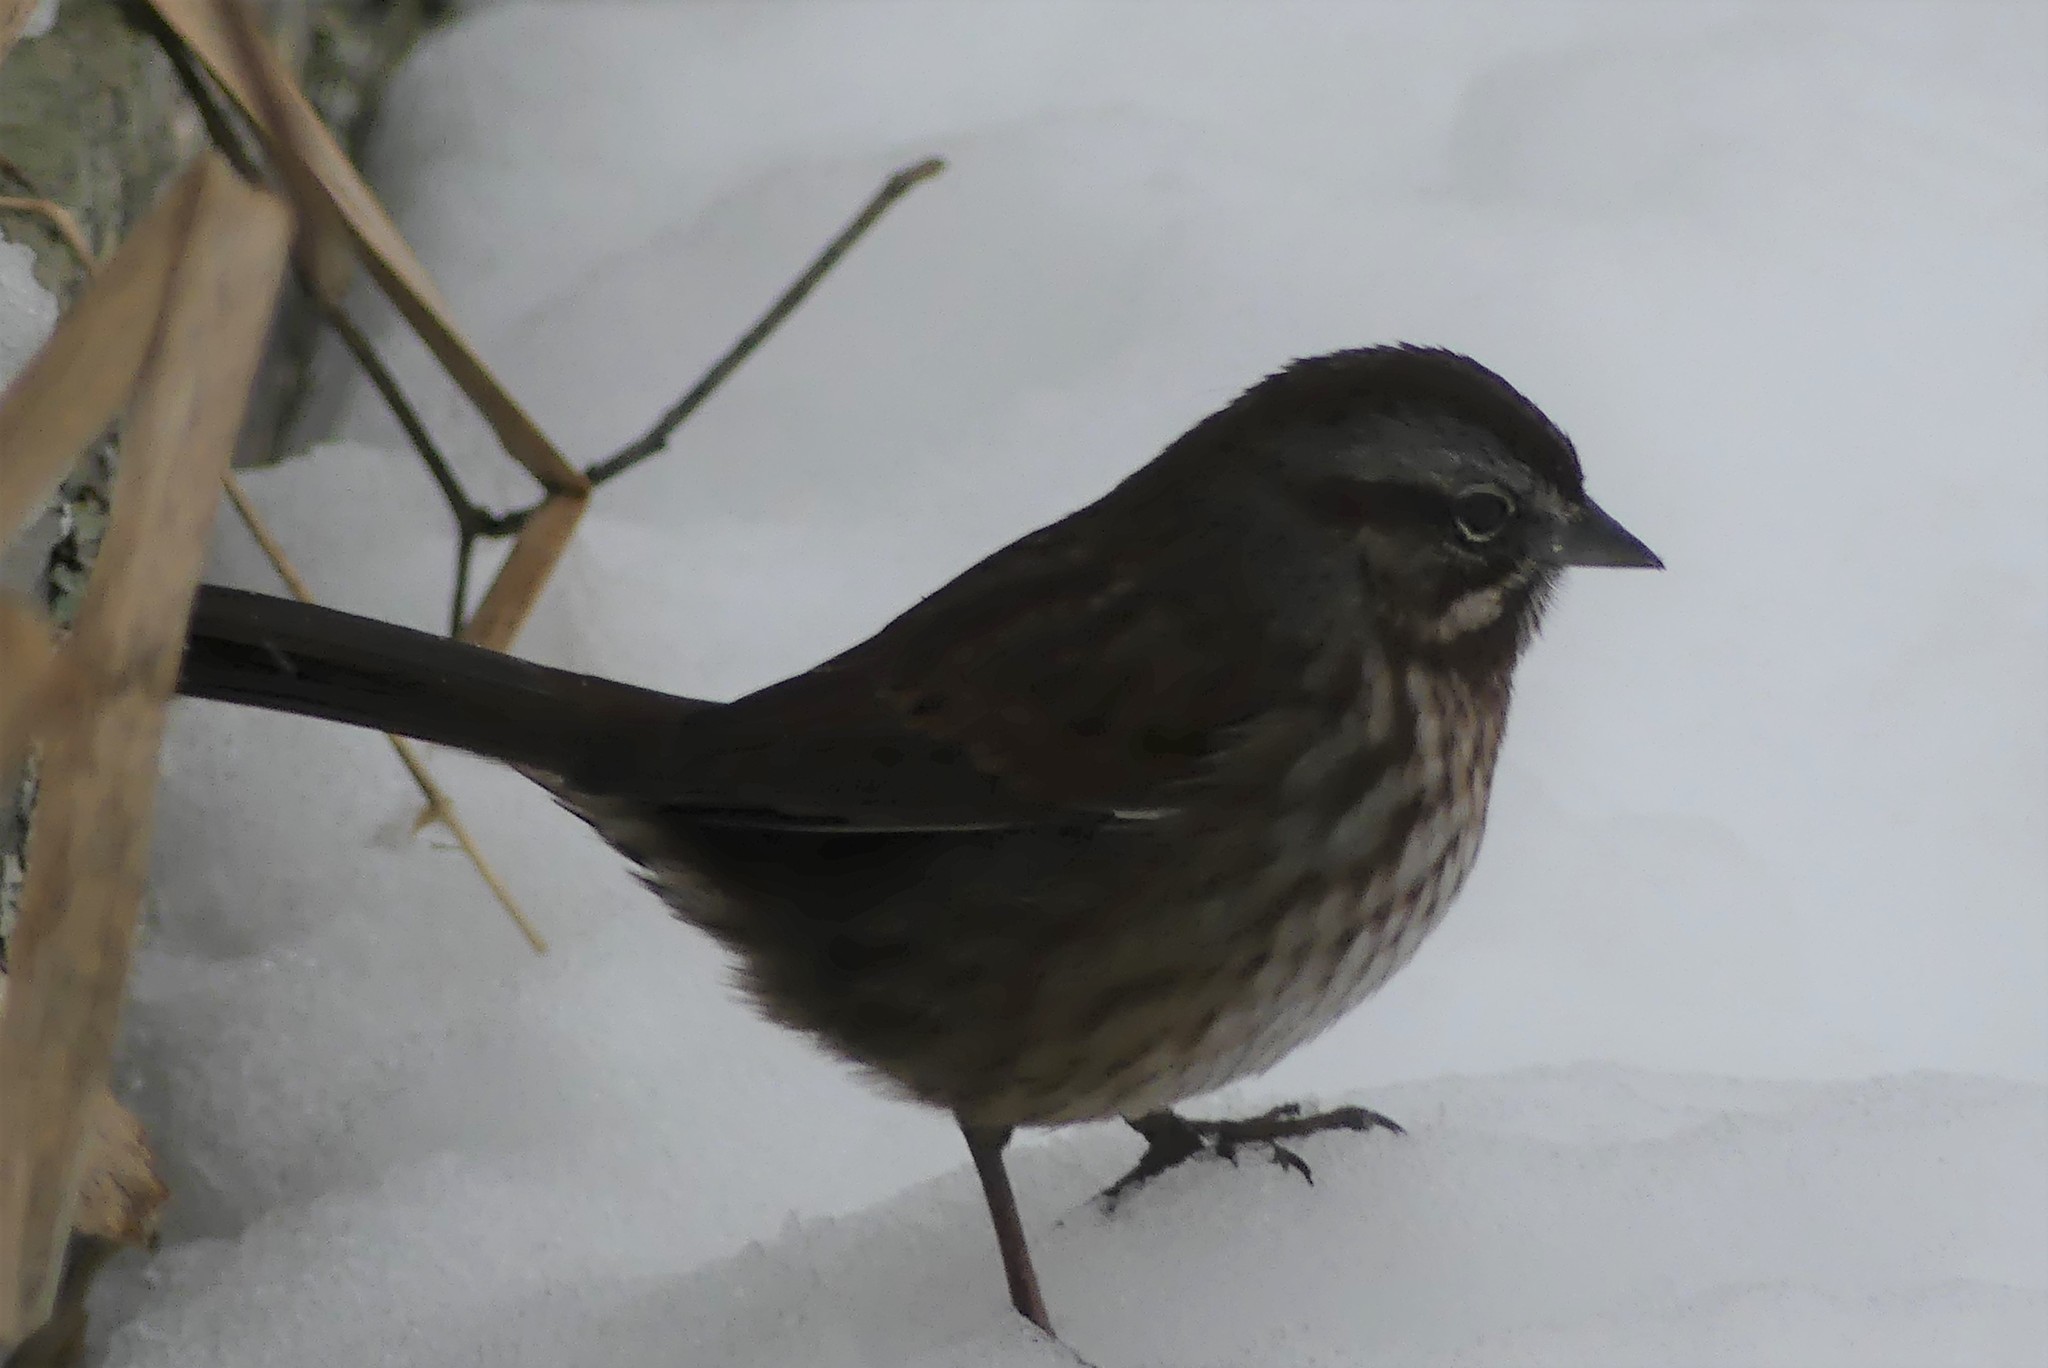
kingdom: Animalia
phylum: Chordata
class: Aves
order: Passeriformes
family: Passerellidae
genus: Melospiza
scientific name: Melospiza melodia
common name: Song sparrow
